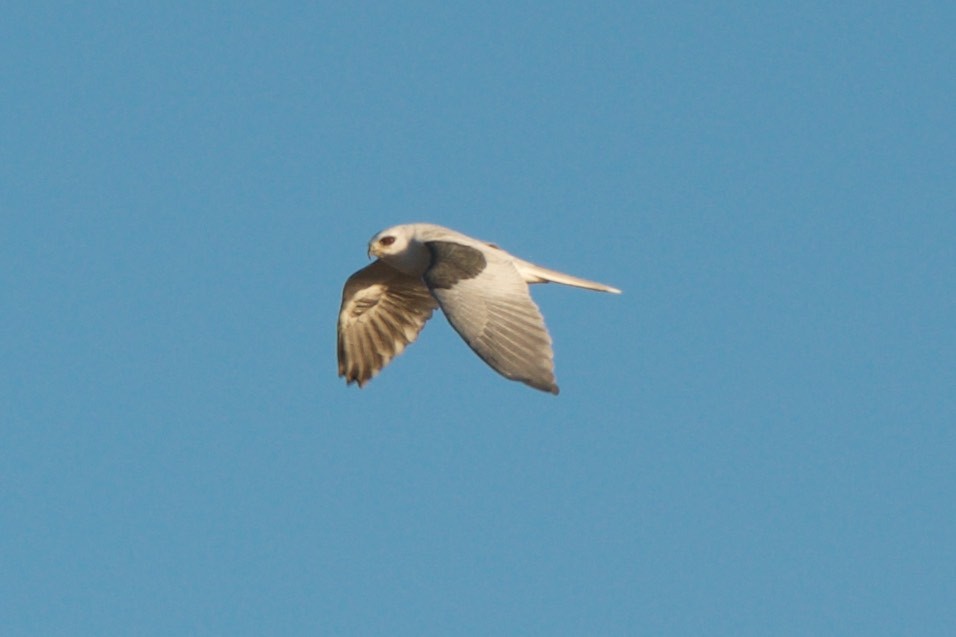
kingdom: Animalia
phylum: Chordata
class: Aves
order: Accipitriformes
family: Accipitridae
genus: Elanus
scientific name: Elanus leucurus
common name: White-tailed kite
